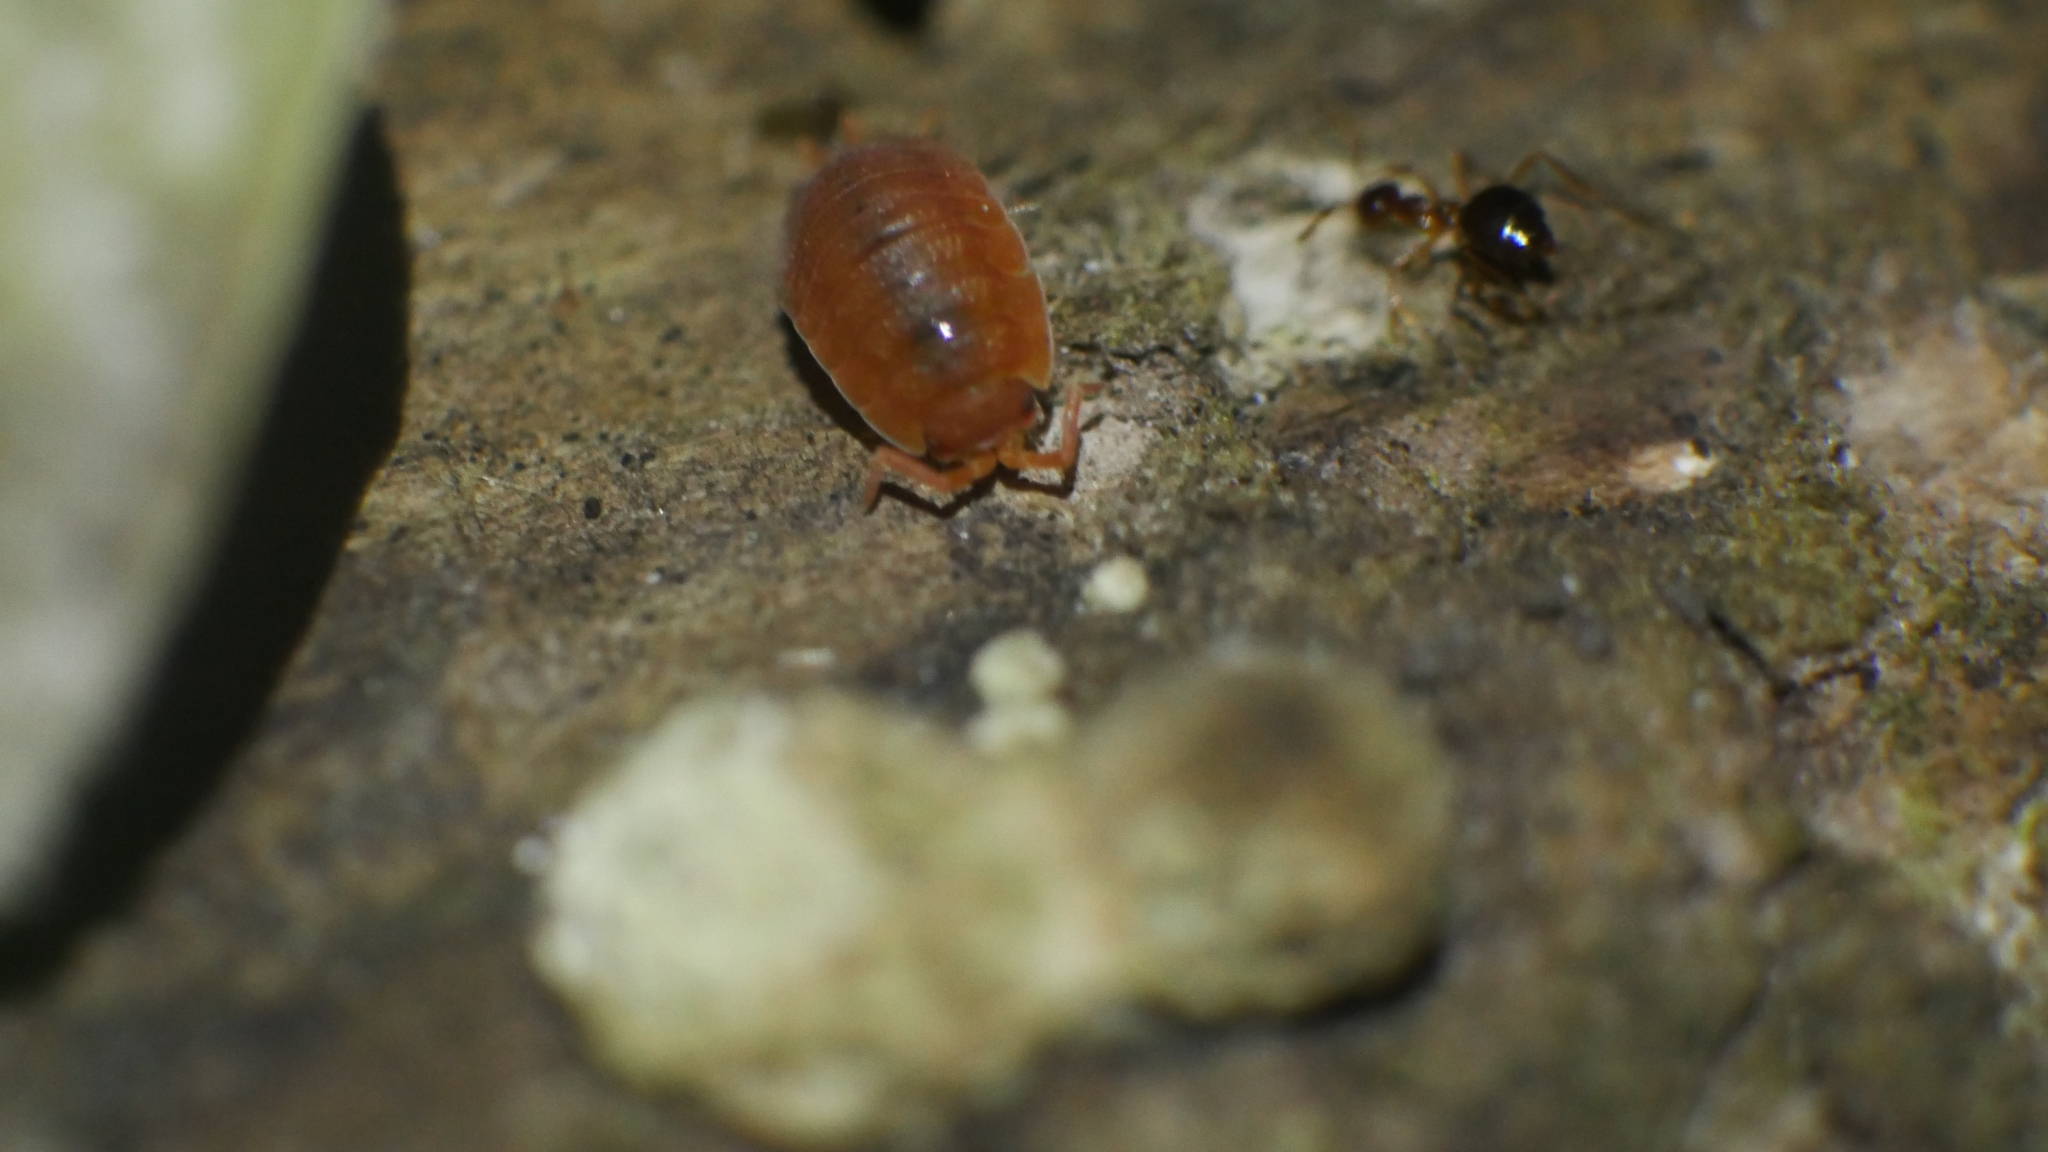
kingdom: Animalia
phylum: Arthropoda
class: Malacostraca
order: Isopoda
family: Porcellionidae
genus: Porcellio
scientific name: Porcellio scaber
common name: Common rough woodlouse
